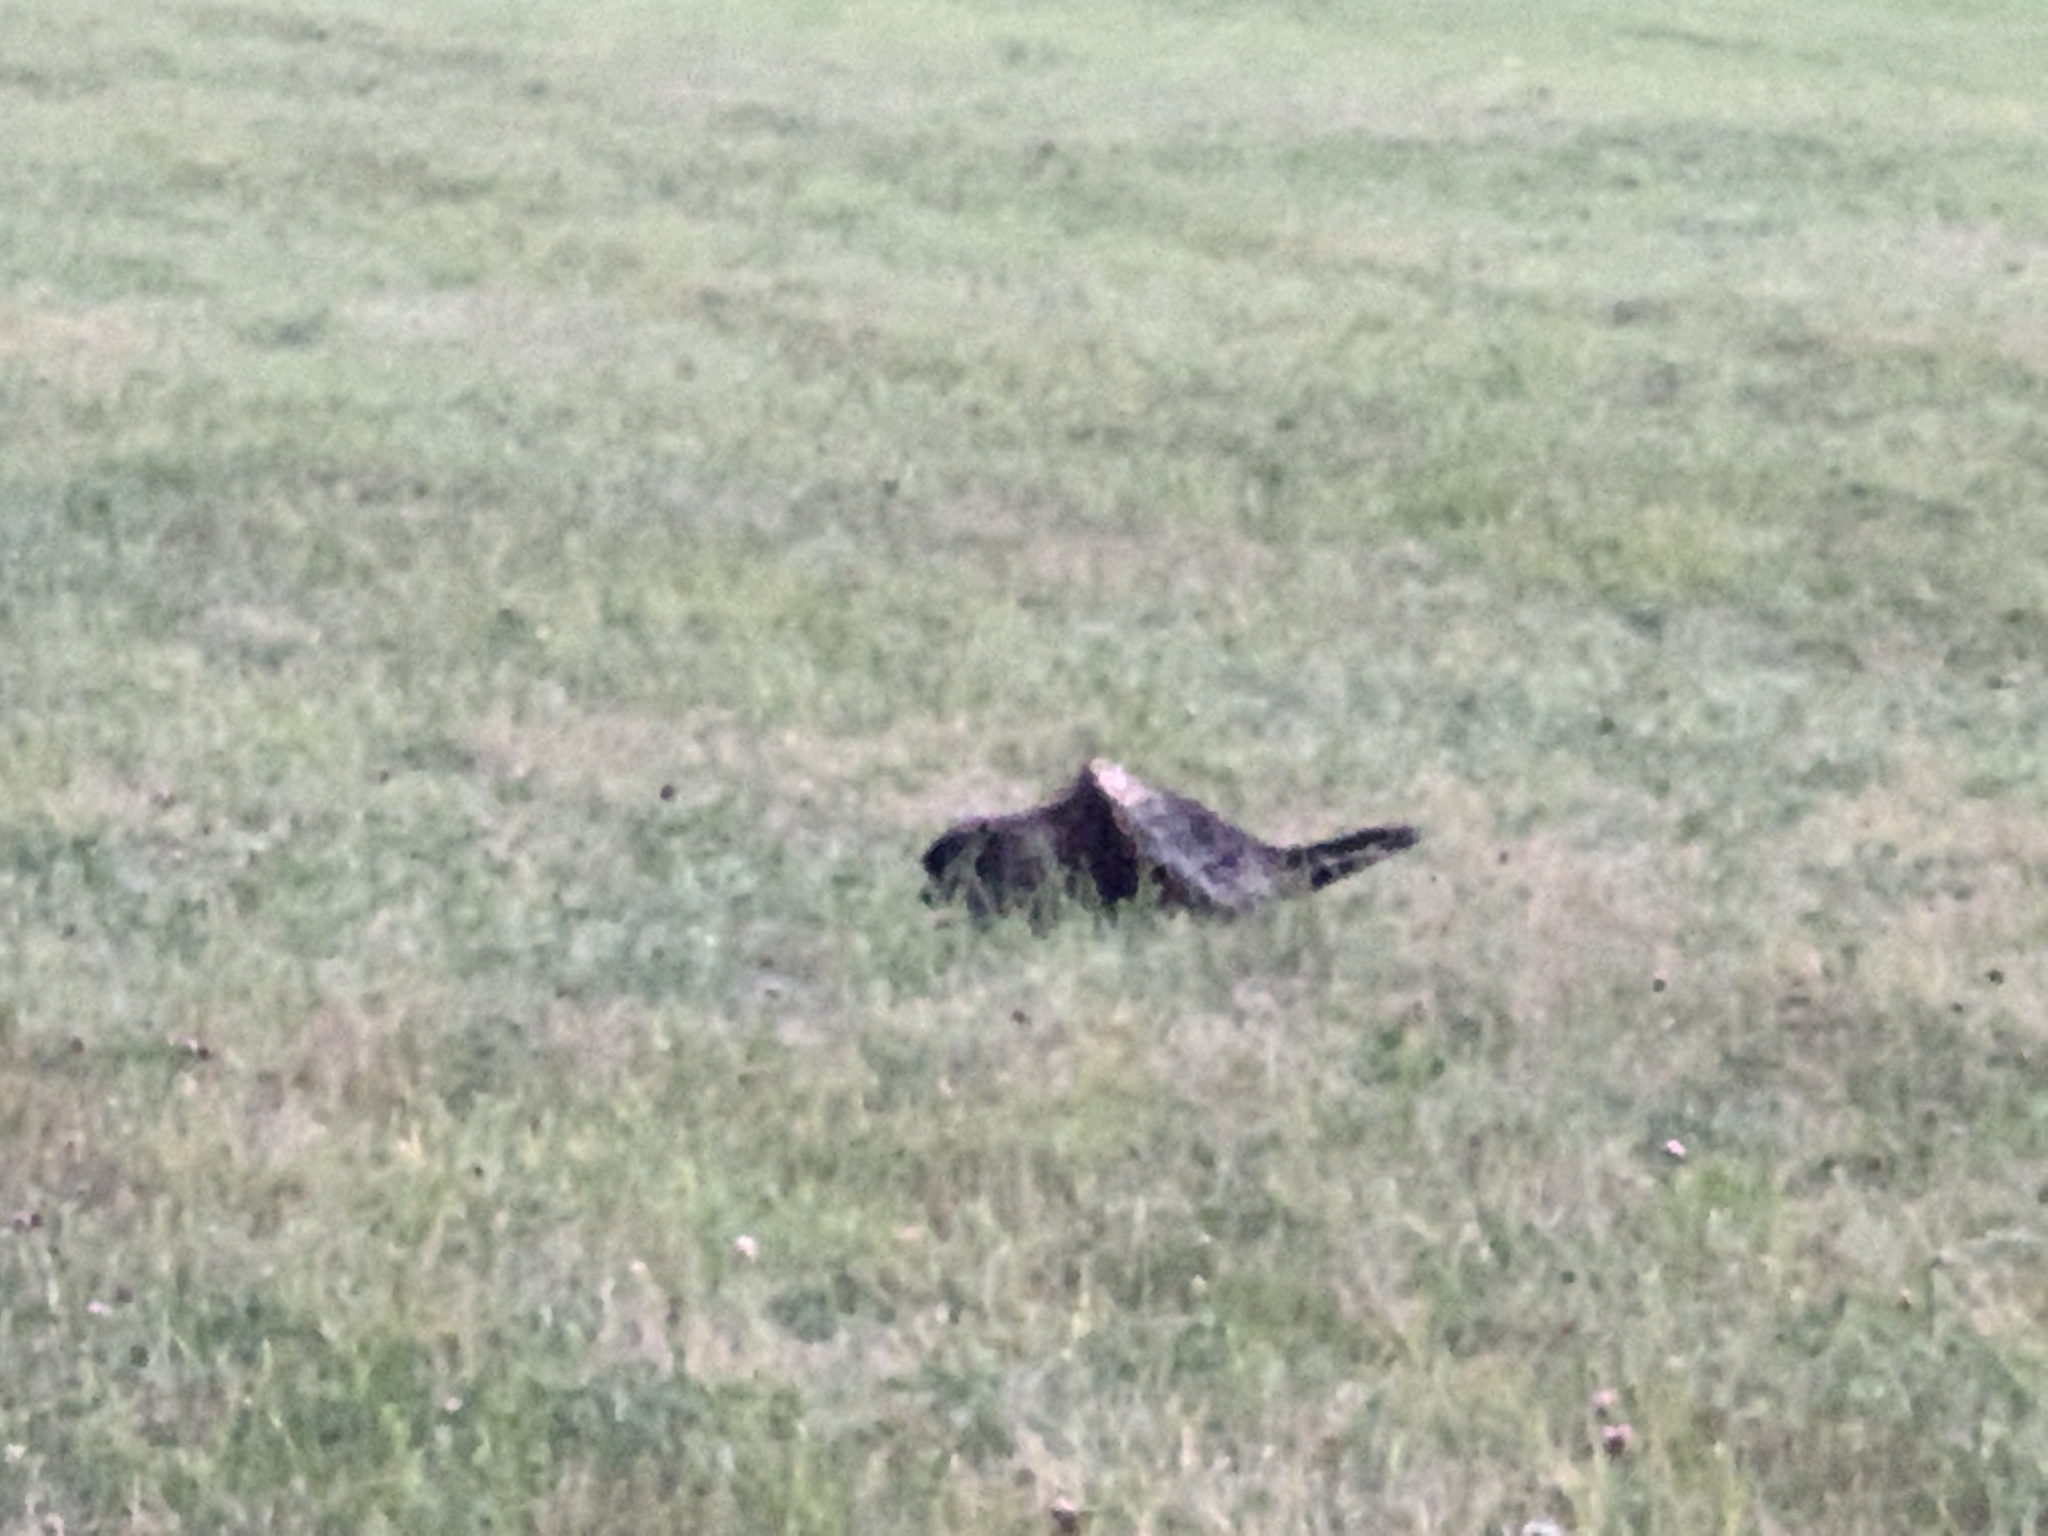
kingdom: Animalia
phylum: Chordata
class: Mammalia
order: Rodentia
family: Erethizontidae
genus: Erethizon
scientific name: Erethizon dorsatus
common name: North american porcupine
